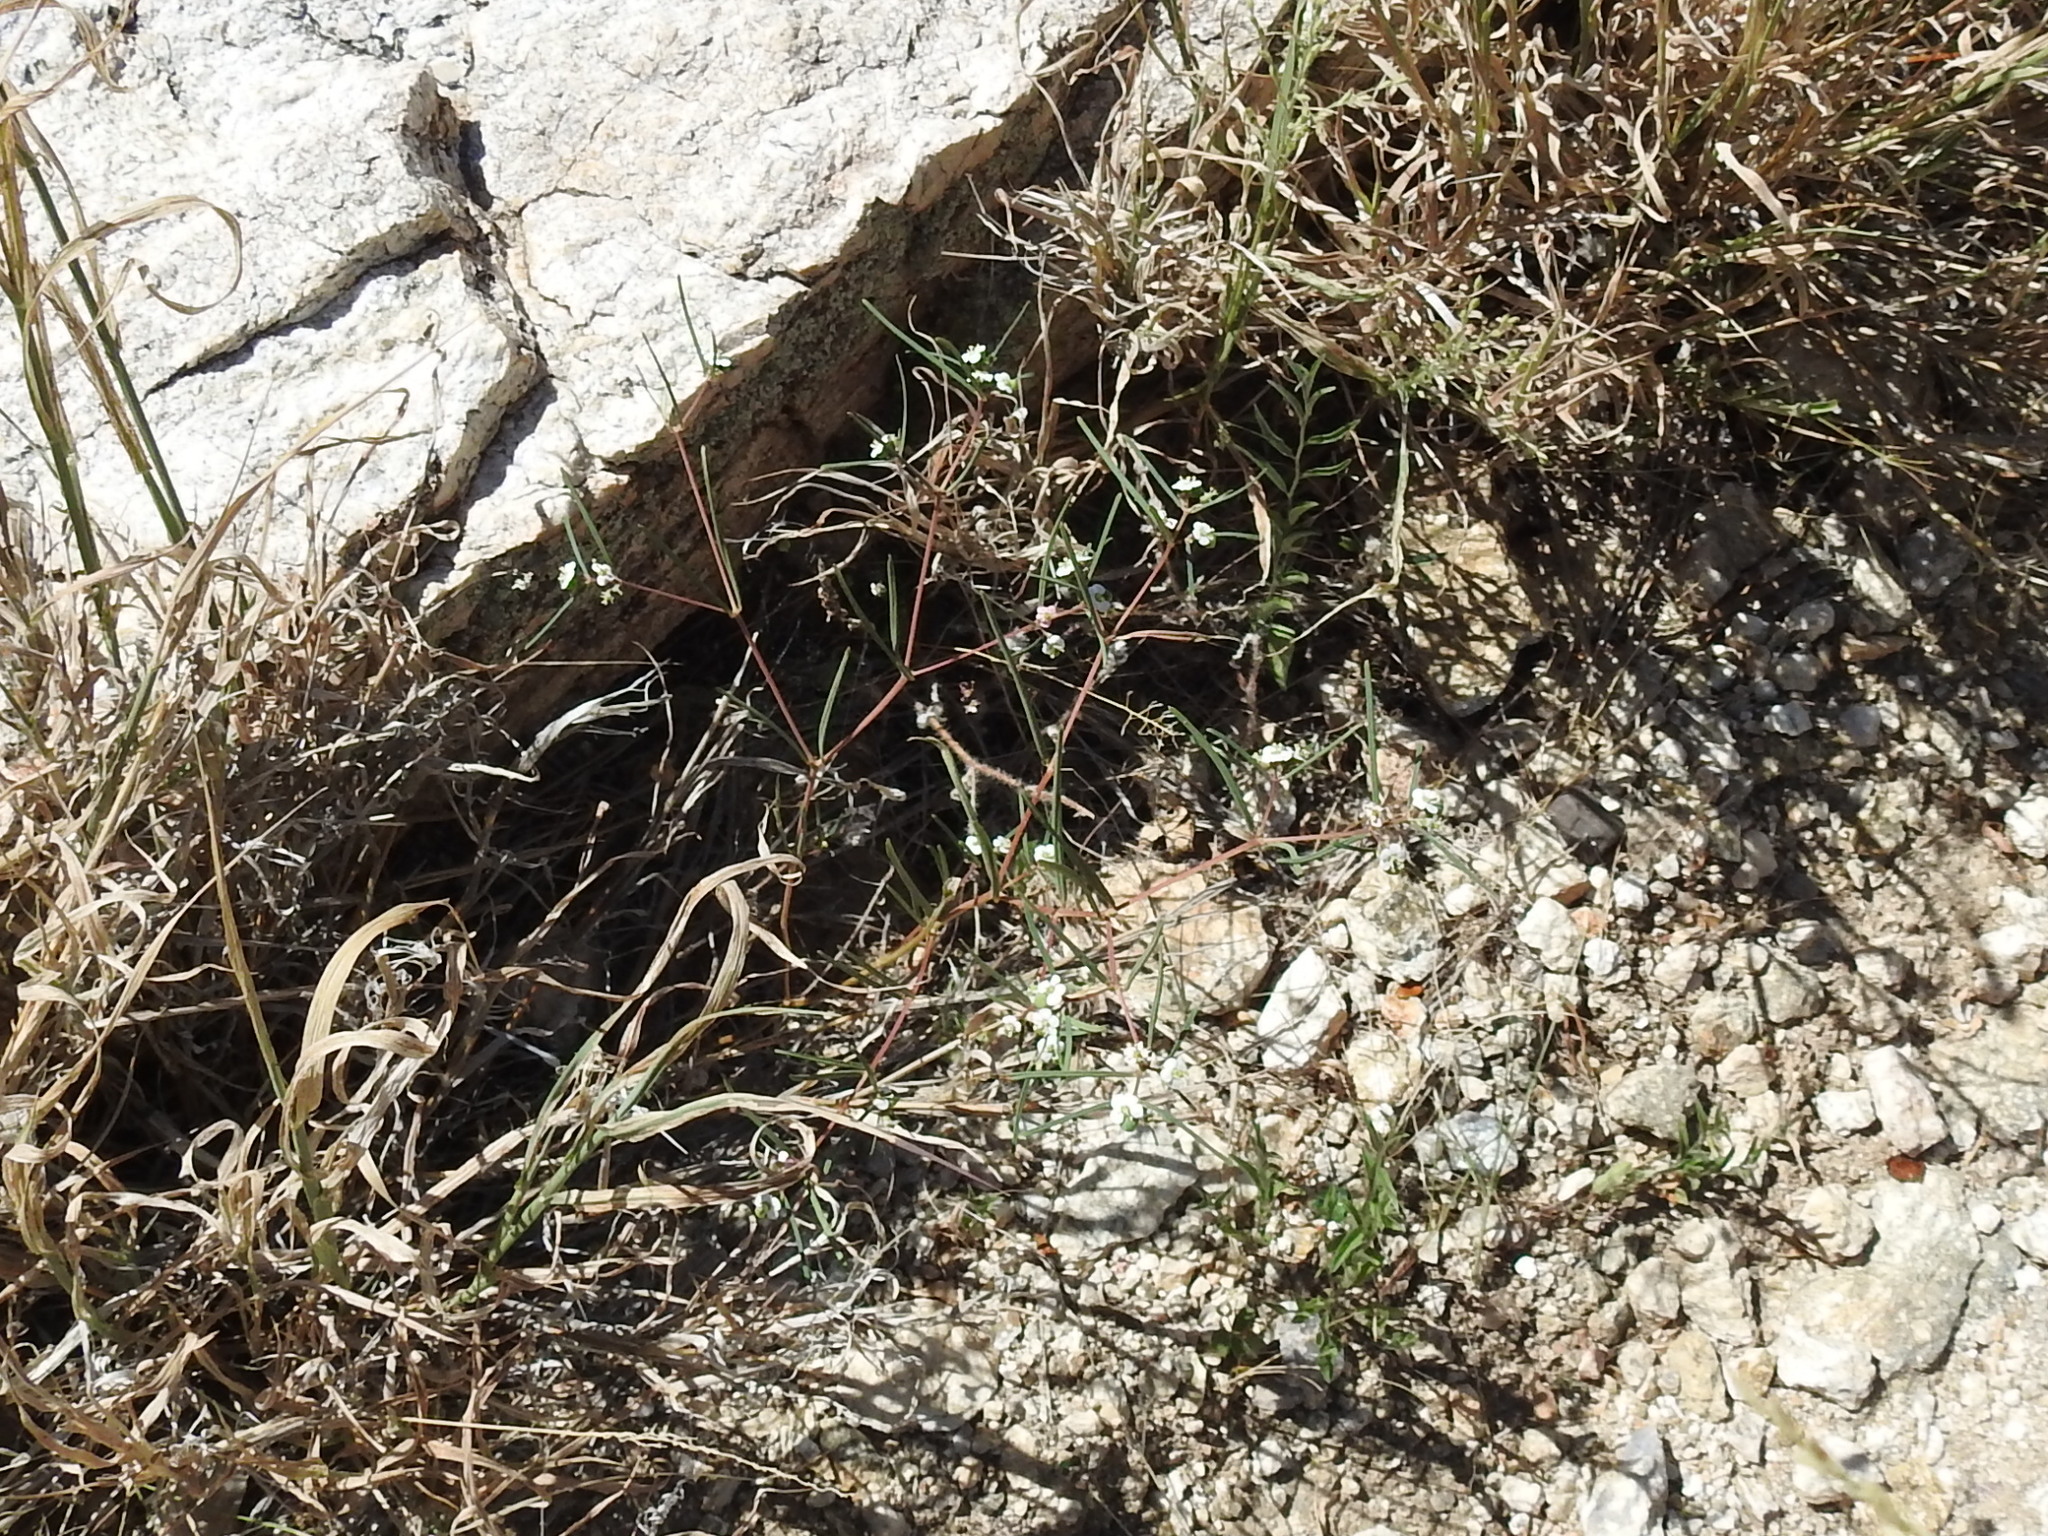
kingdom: Plantae
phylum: Tracheophyta
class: Magnoliopsida
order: Malpighiales
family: Euphorbiaceae
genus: Euphorbia
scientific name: Euphorbia florida
